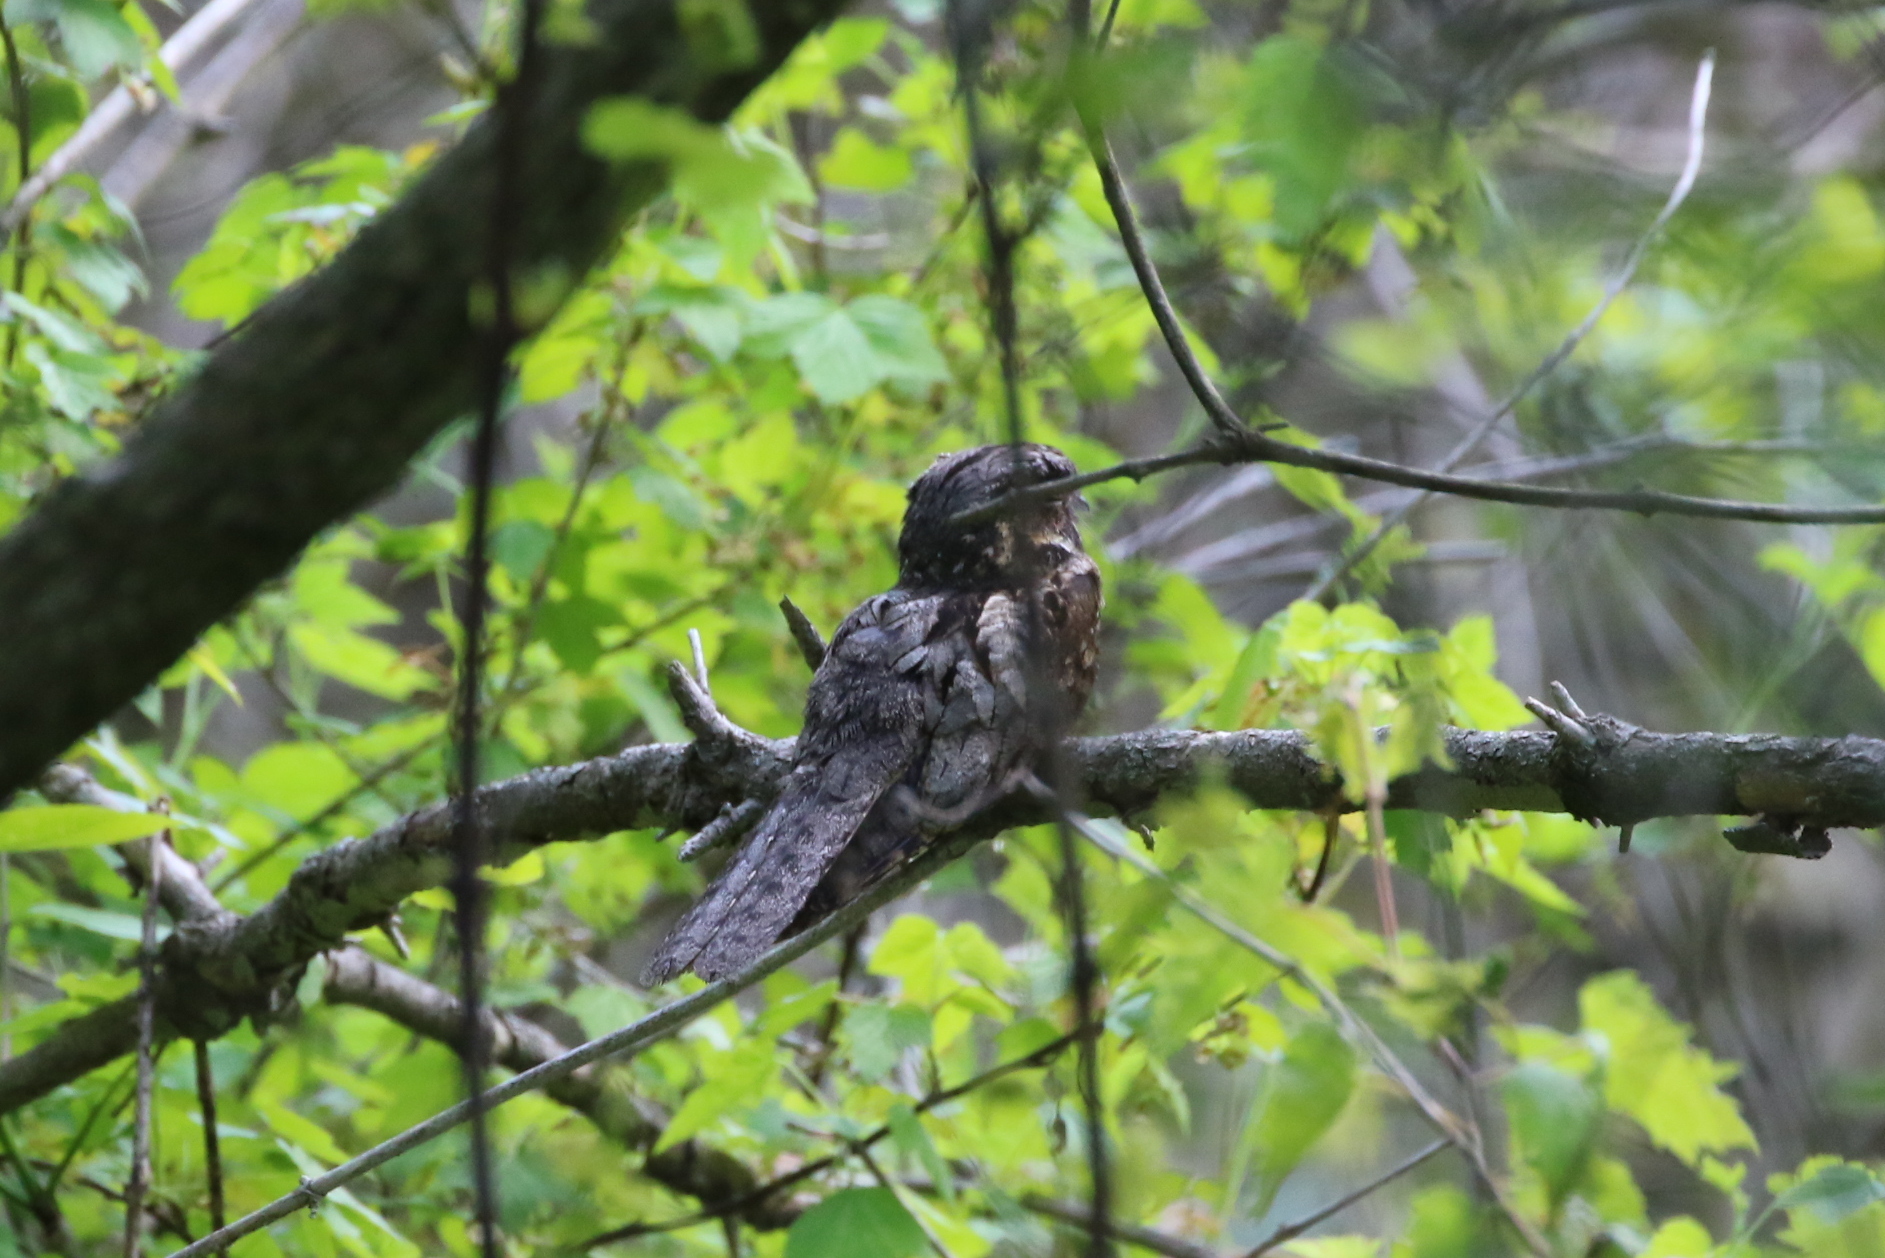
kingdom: Animalia
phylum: Chordata
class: Aves
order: Caprimulgiformes
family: Caprimulgidae
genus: Antrostomus
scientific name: Antrostomus vociferus
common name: Eastern whip-poor-will
